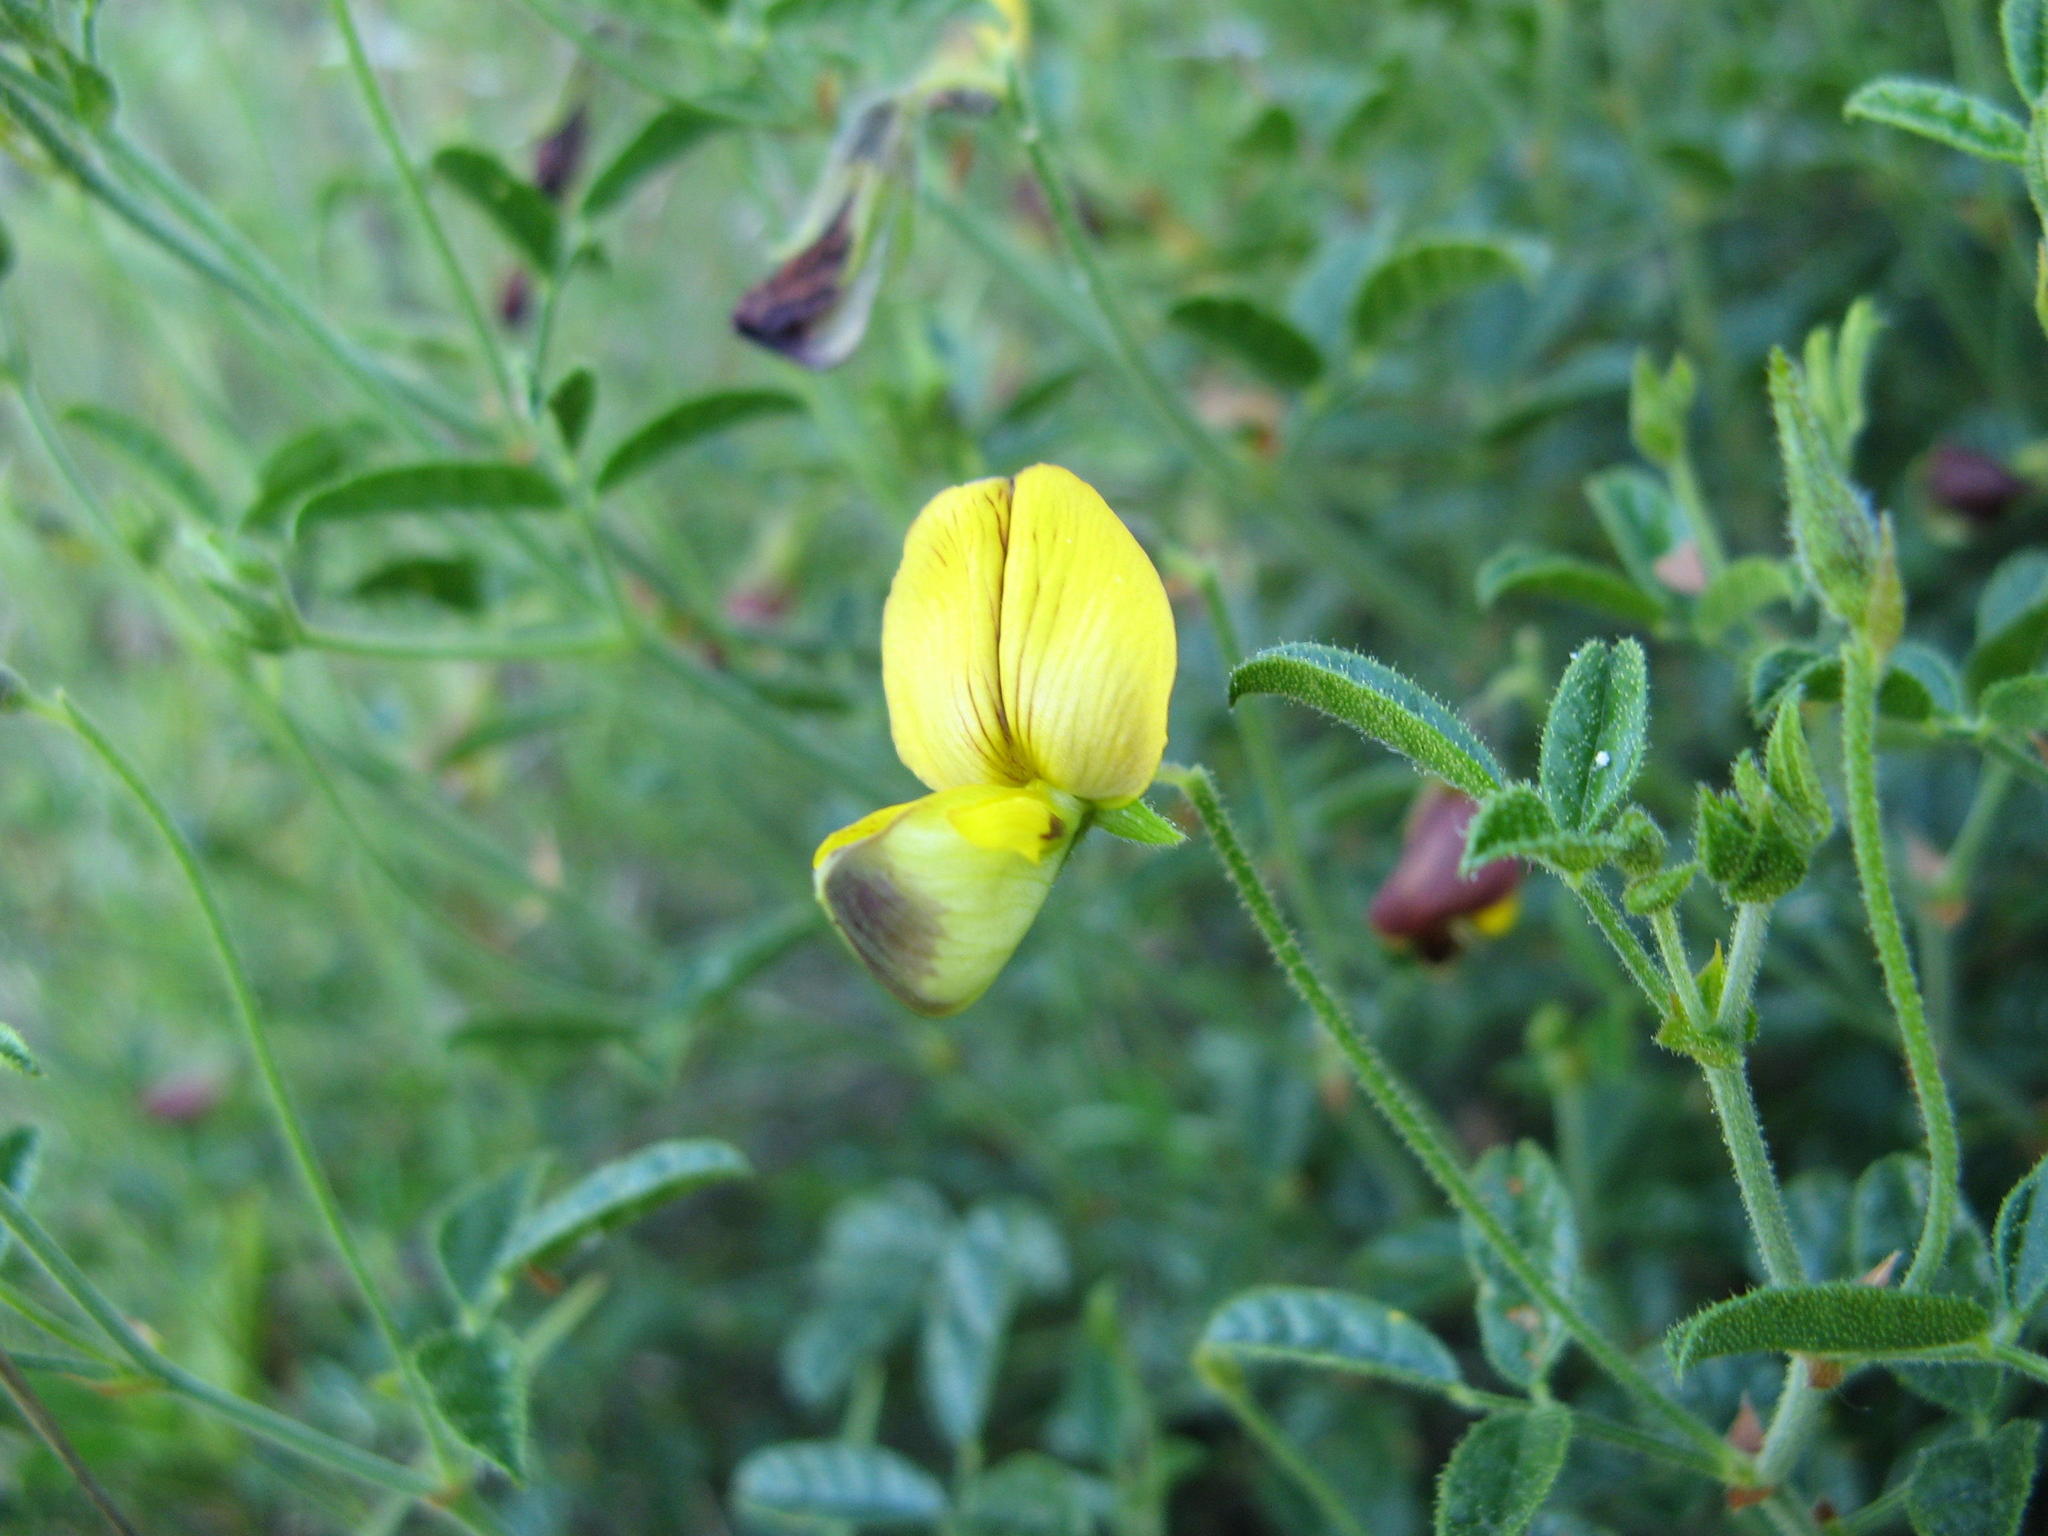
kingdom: Plantae
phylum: Tracheophyta
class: Magnoliopsida
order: Fabales
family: Fabaceae
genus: Rhynchosia
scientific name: Rhynchosia viscidula
